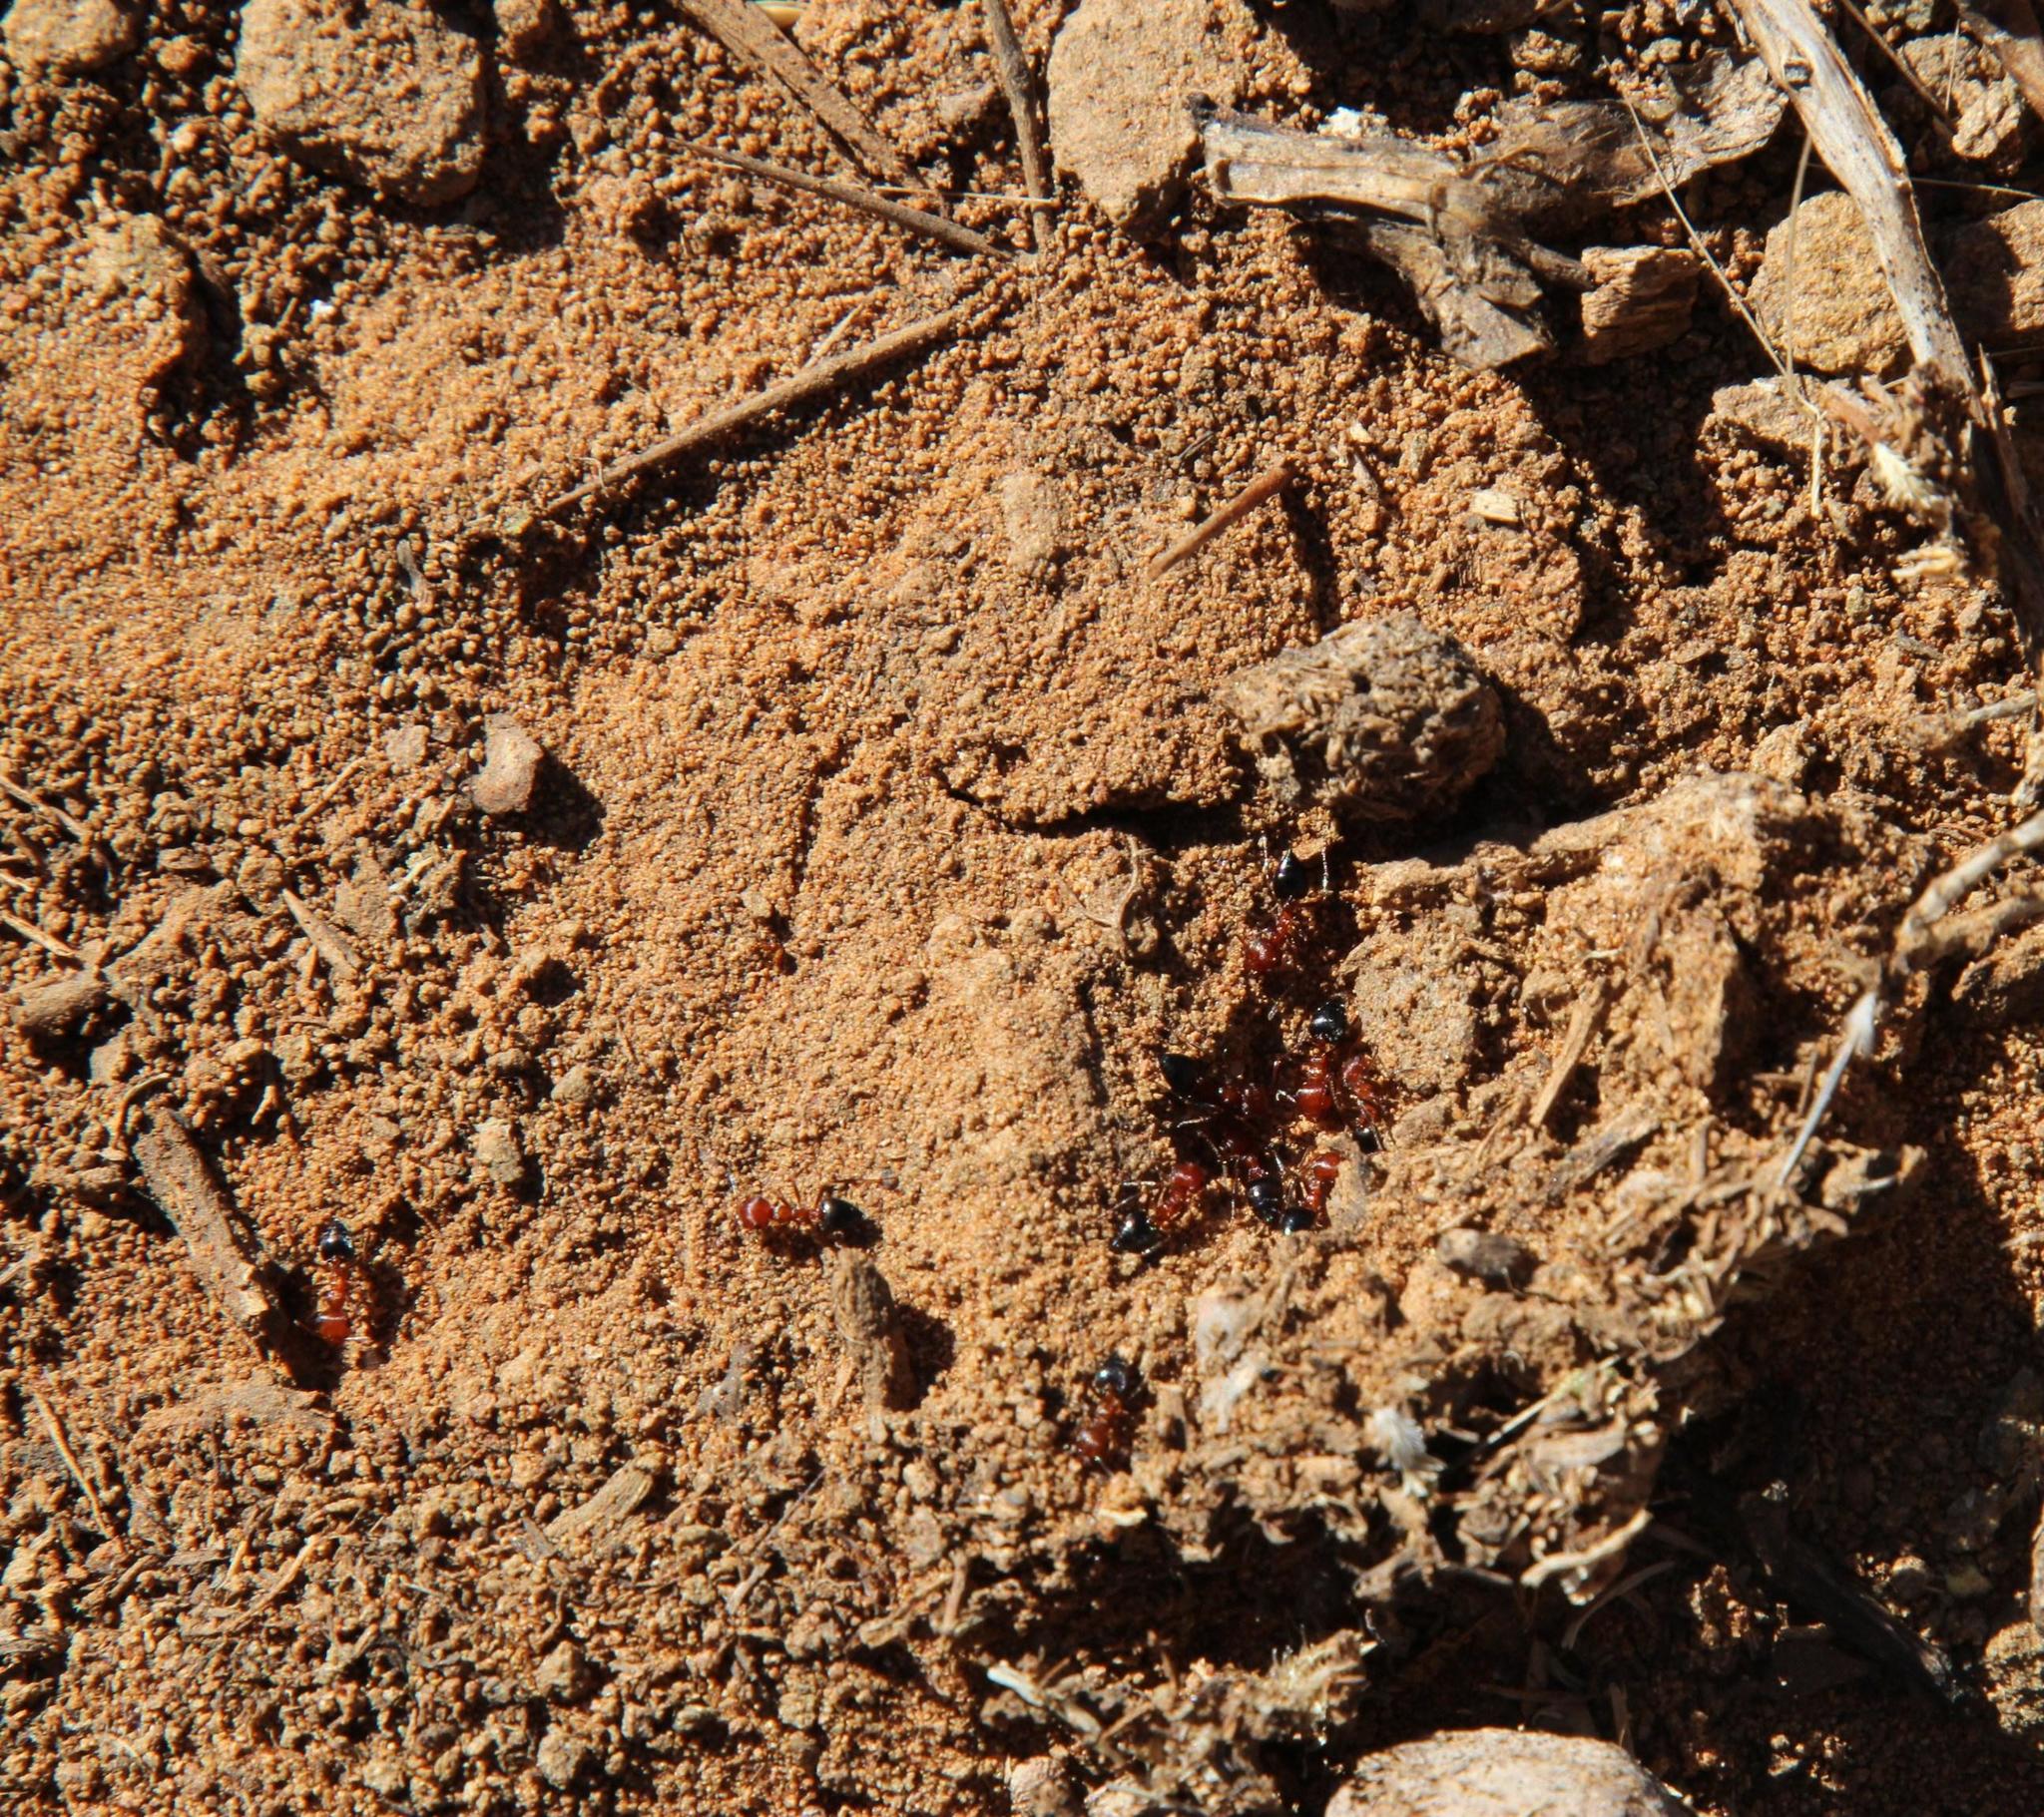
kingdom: Animalia
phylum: Arthropoda
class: Insecta
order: Hymenoptera
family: Formicidae
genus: Crematogaster
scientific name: Crematogaster melanogaster
